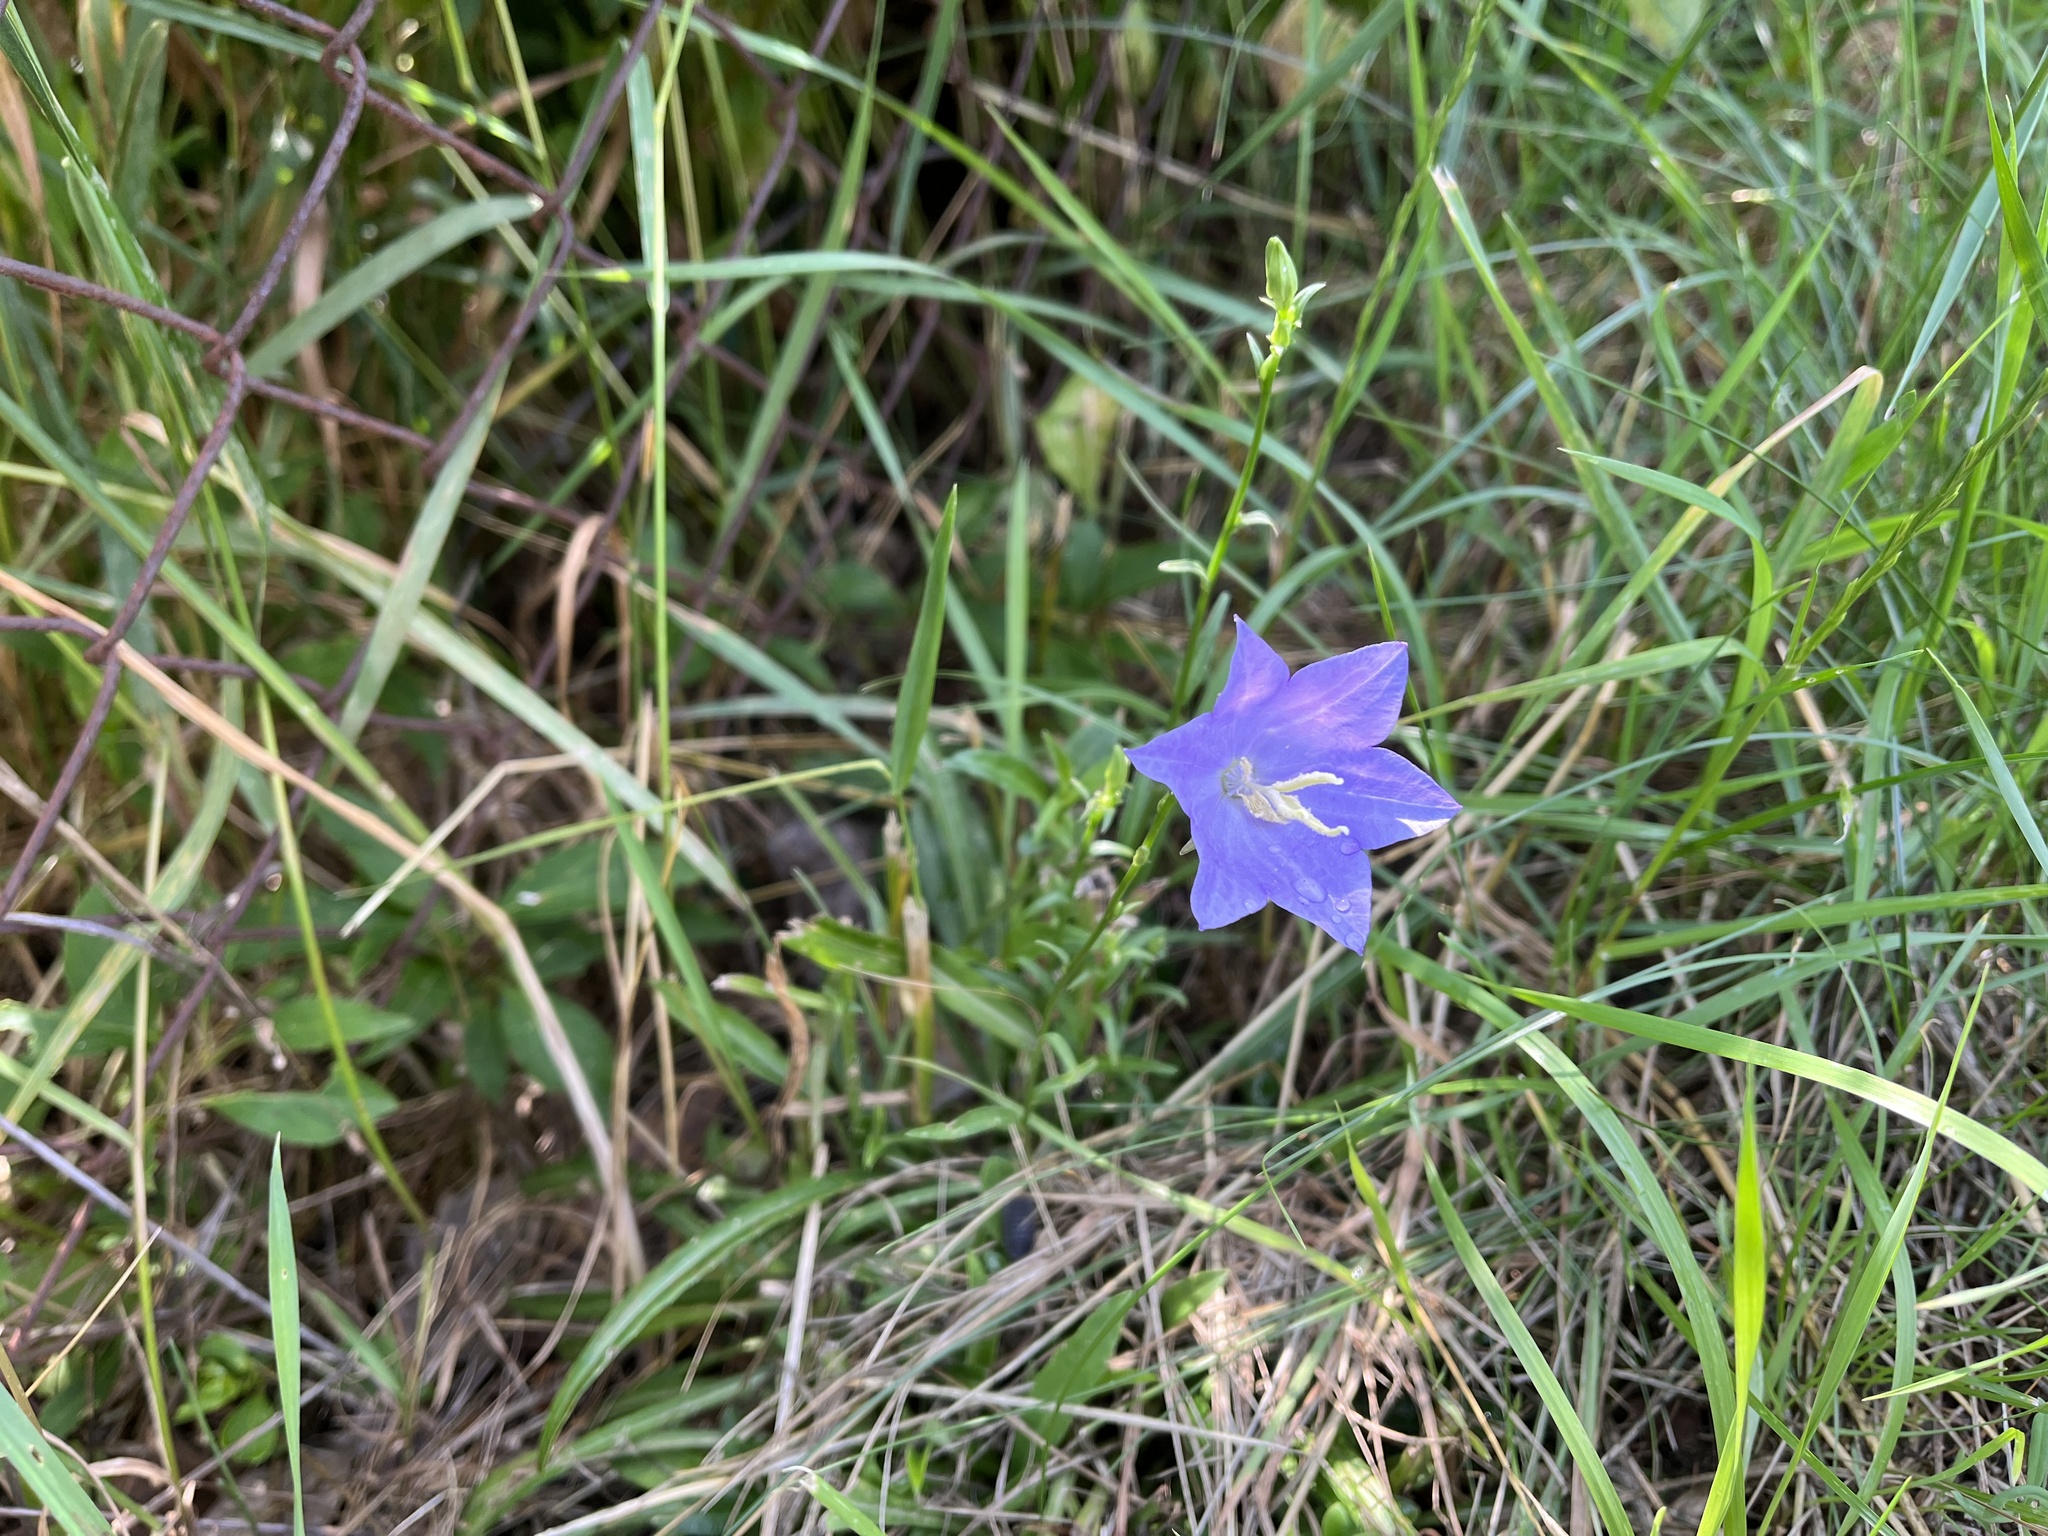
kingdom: Plantae
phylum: Tracheophyta
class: Magnoliopsida
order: Asterales
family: Campanulaceae
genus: Campanula
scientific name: Campanula persicifolia
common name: Peach-leaved bellflower
